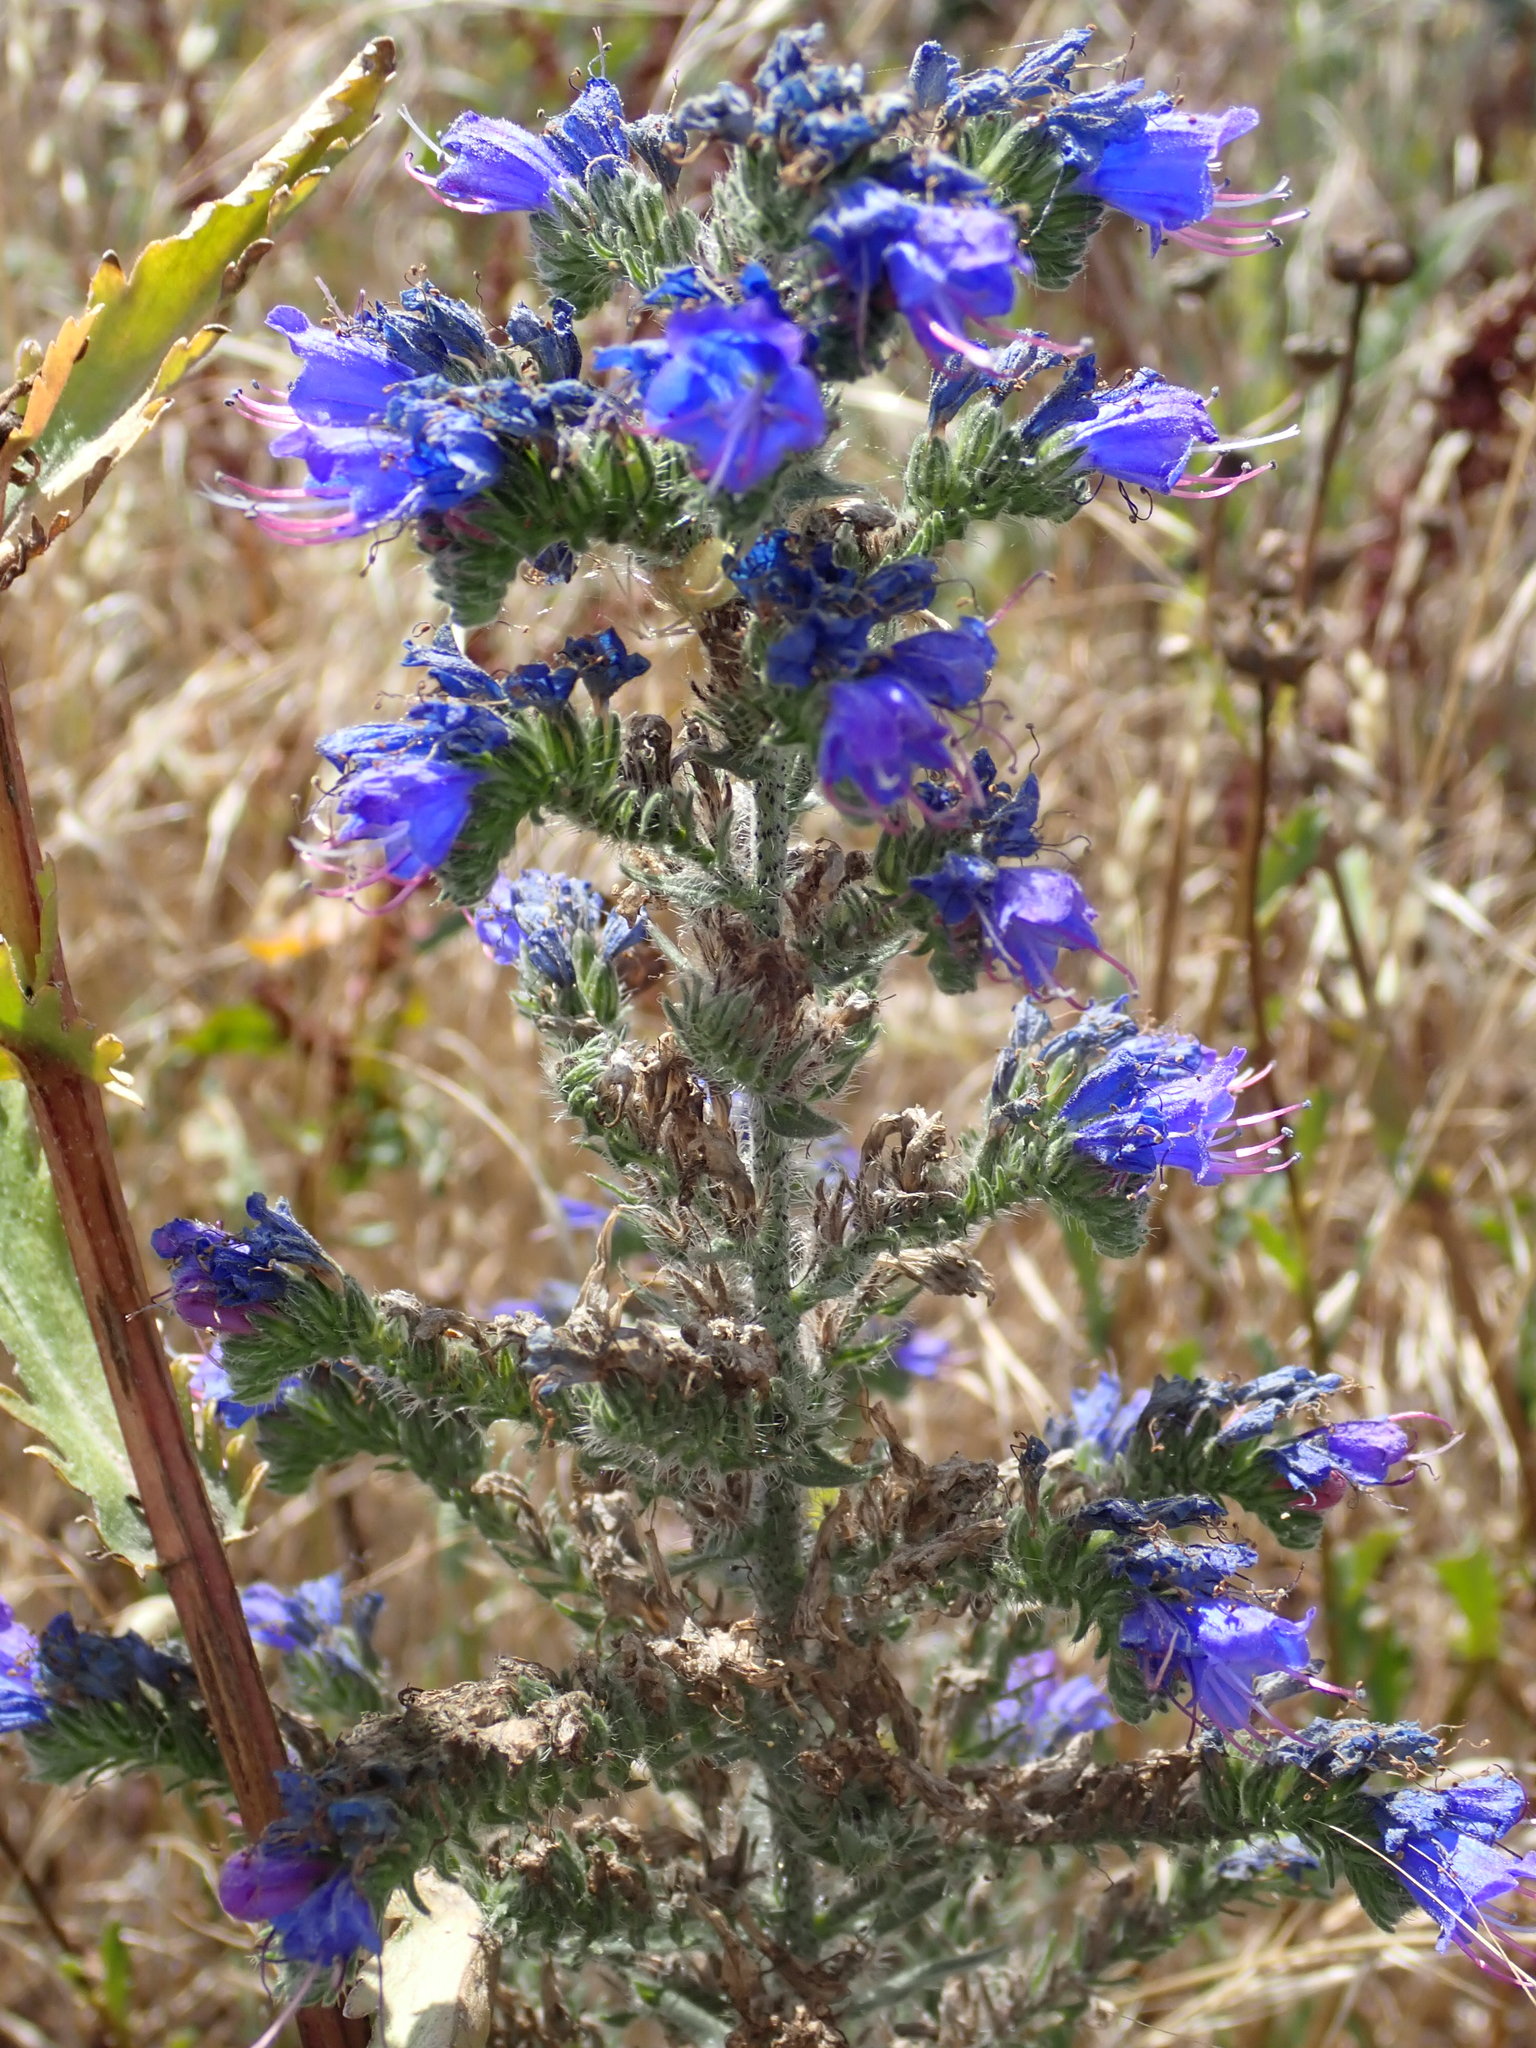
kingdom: Plantae
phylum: Tracheophyta
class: Magnoliopsida
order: Boraginales
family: Boraginaceae
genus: Echium
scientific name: Echium vulgare
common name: Common viper's bugloss
